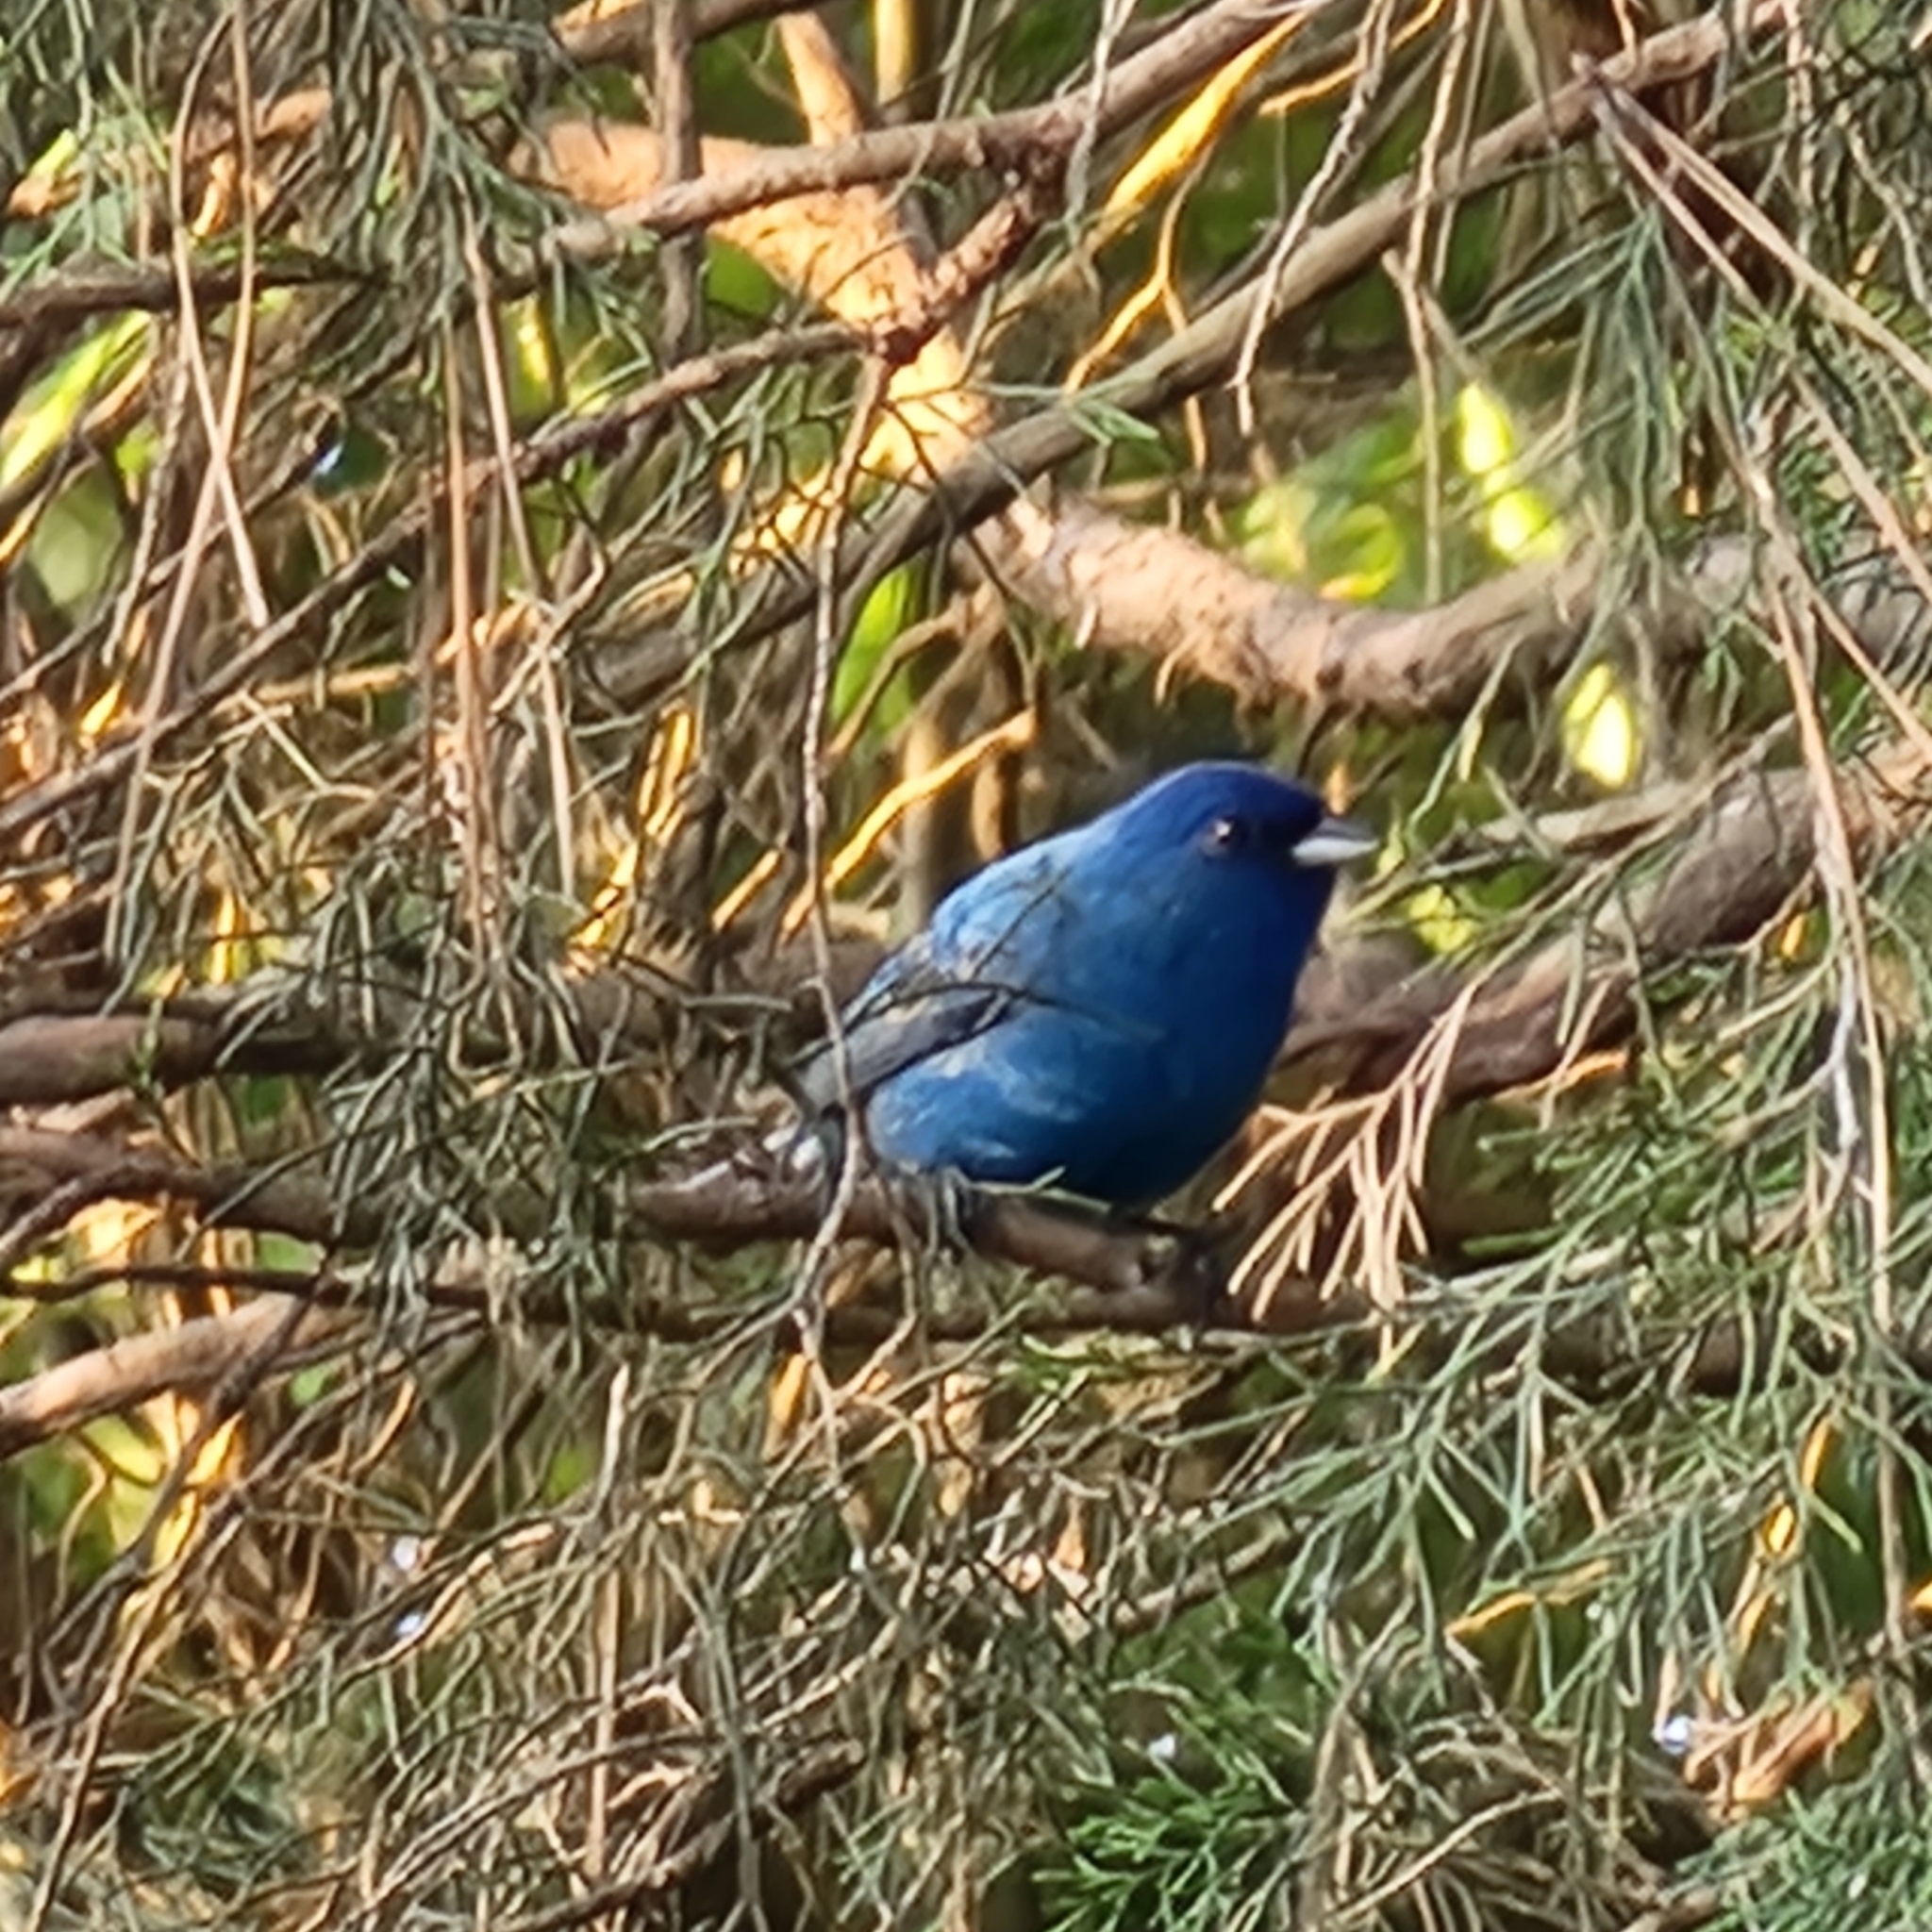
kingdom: Animalia
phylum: Chordata
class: Aves
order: Passeriformes
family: Cardinalidae
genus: Passerina
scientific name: Passerina cyanea
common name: Indigo bunting
